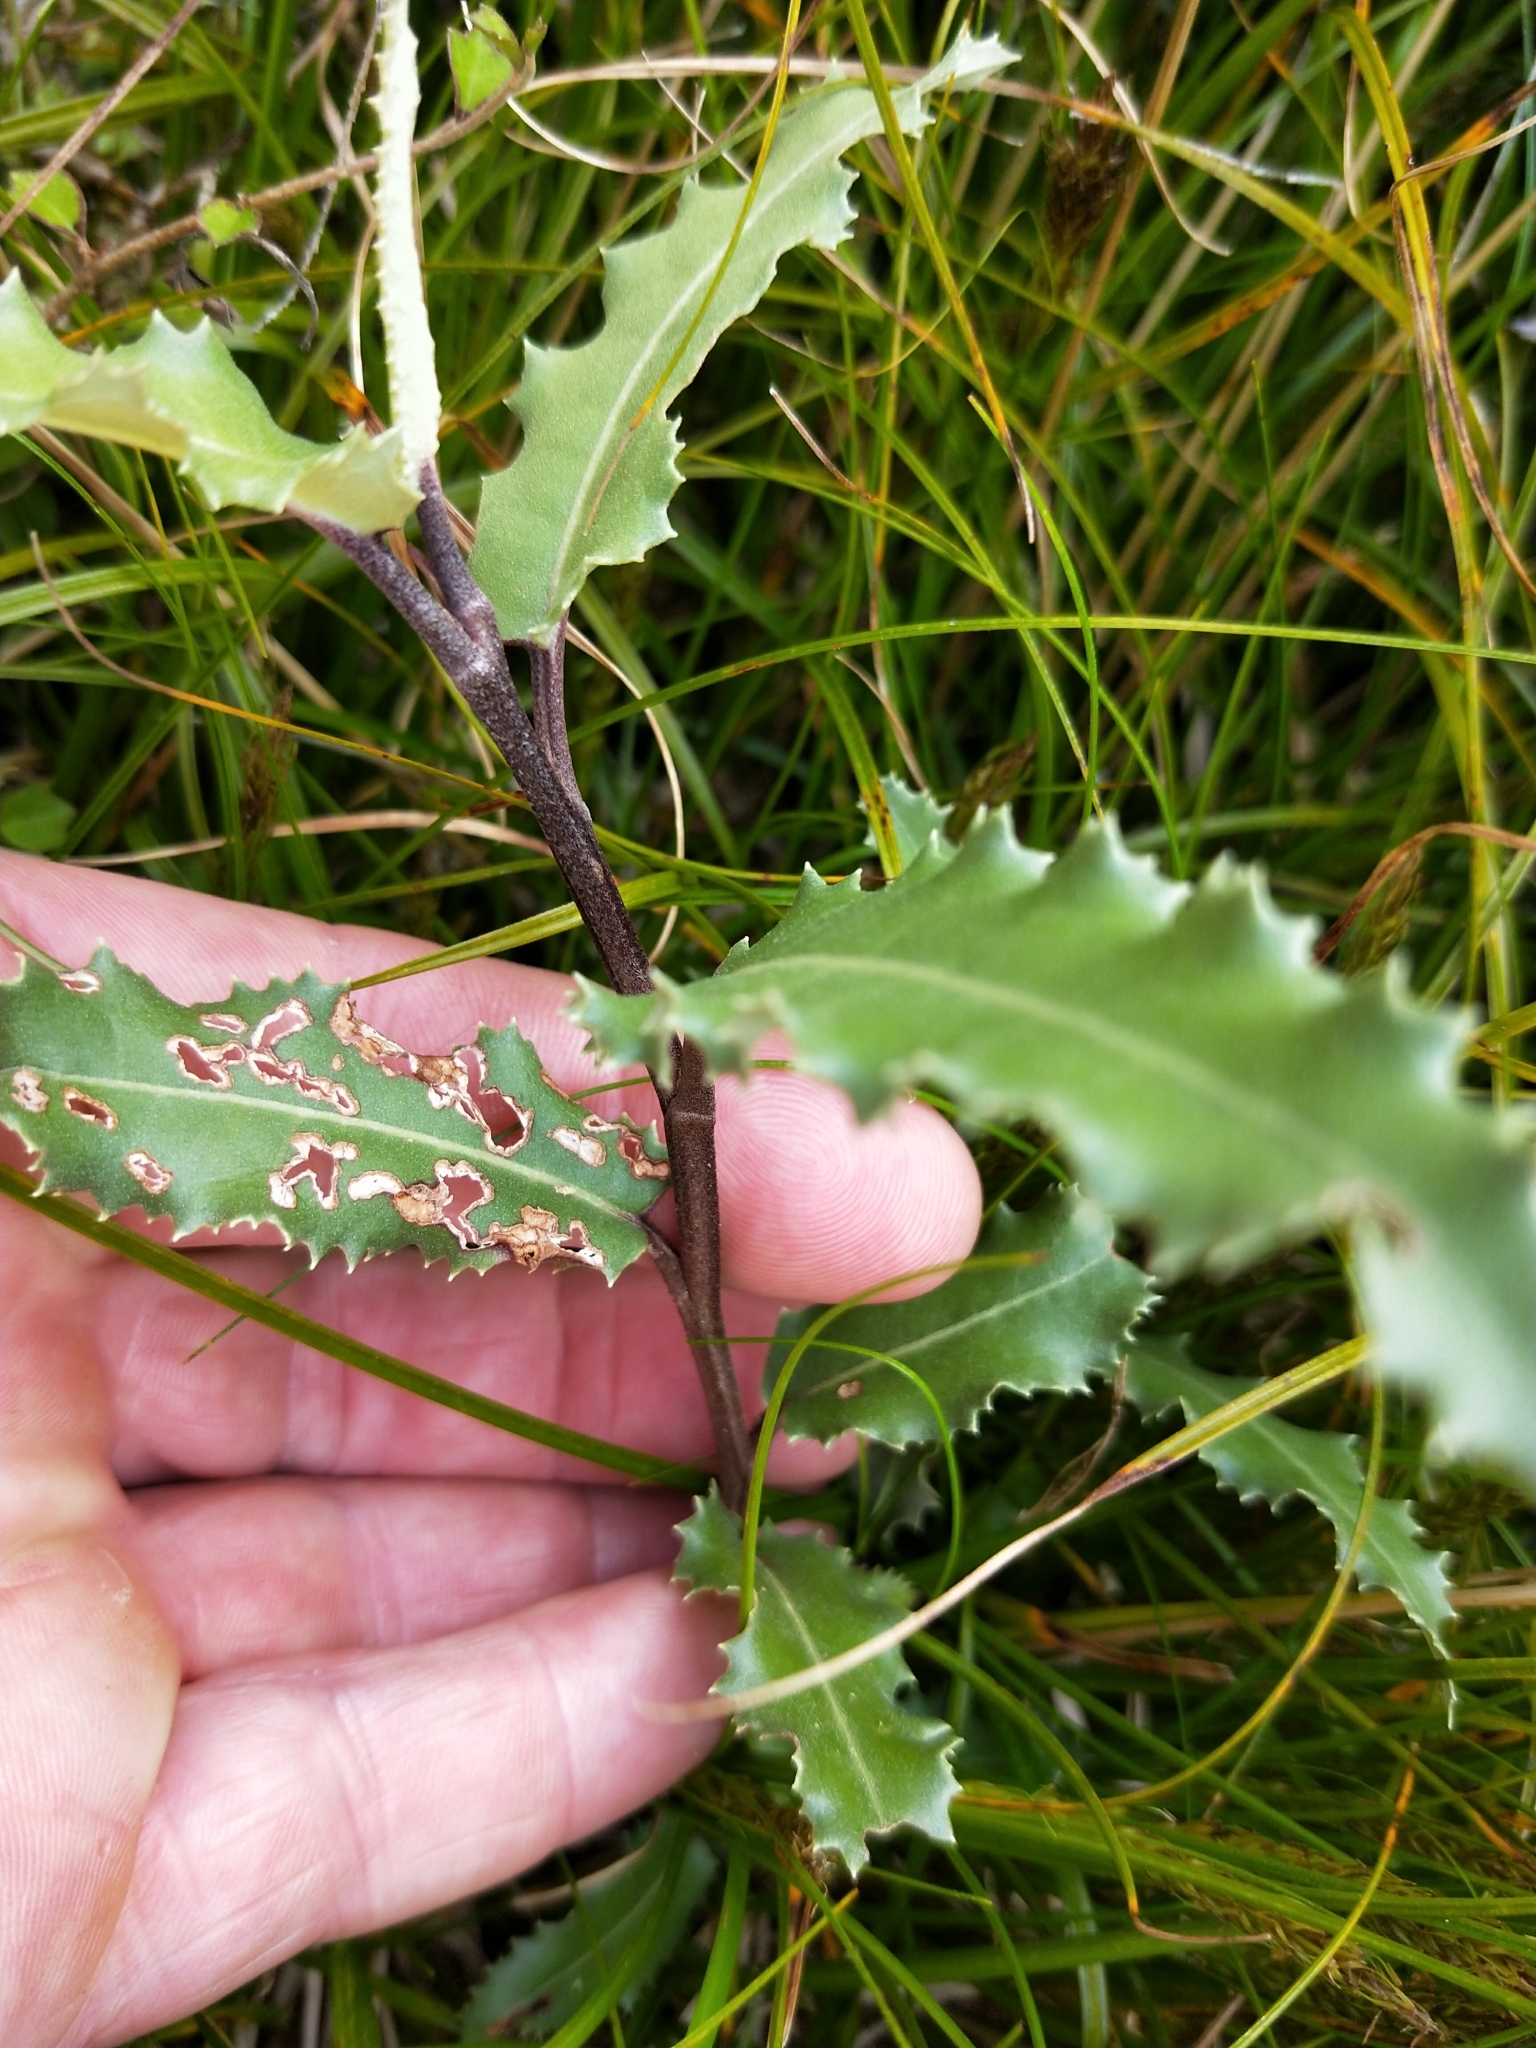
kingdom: Plantae
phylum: Tracheophyta
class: Magnoliopsida
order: Asterales
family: Asteraceae
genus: Olearia
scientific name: Olearia ilicifolia
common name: Maori-holly
